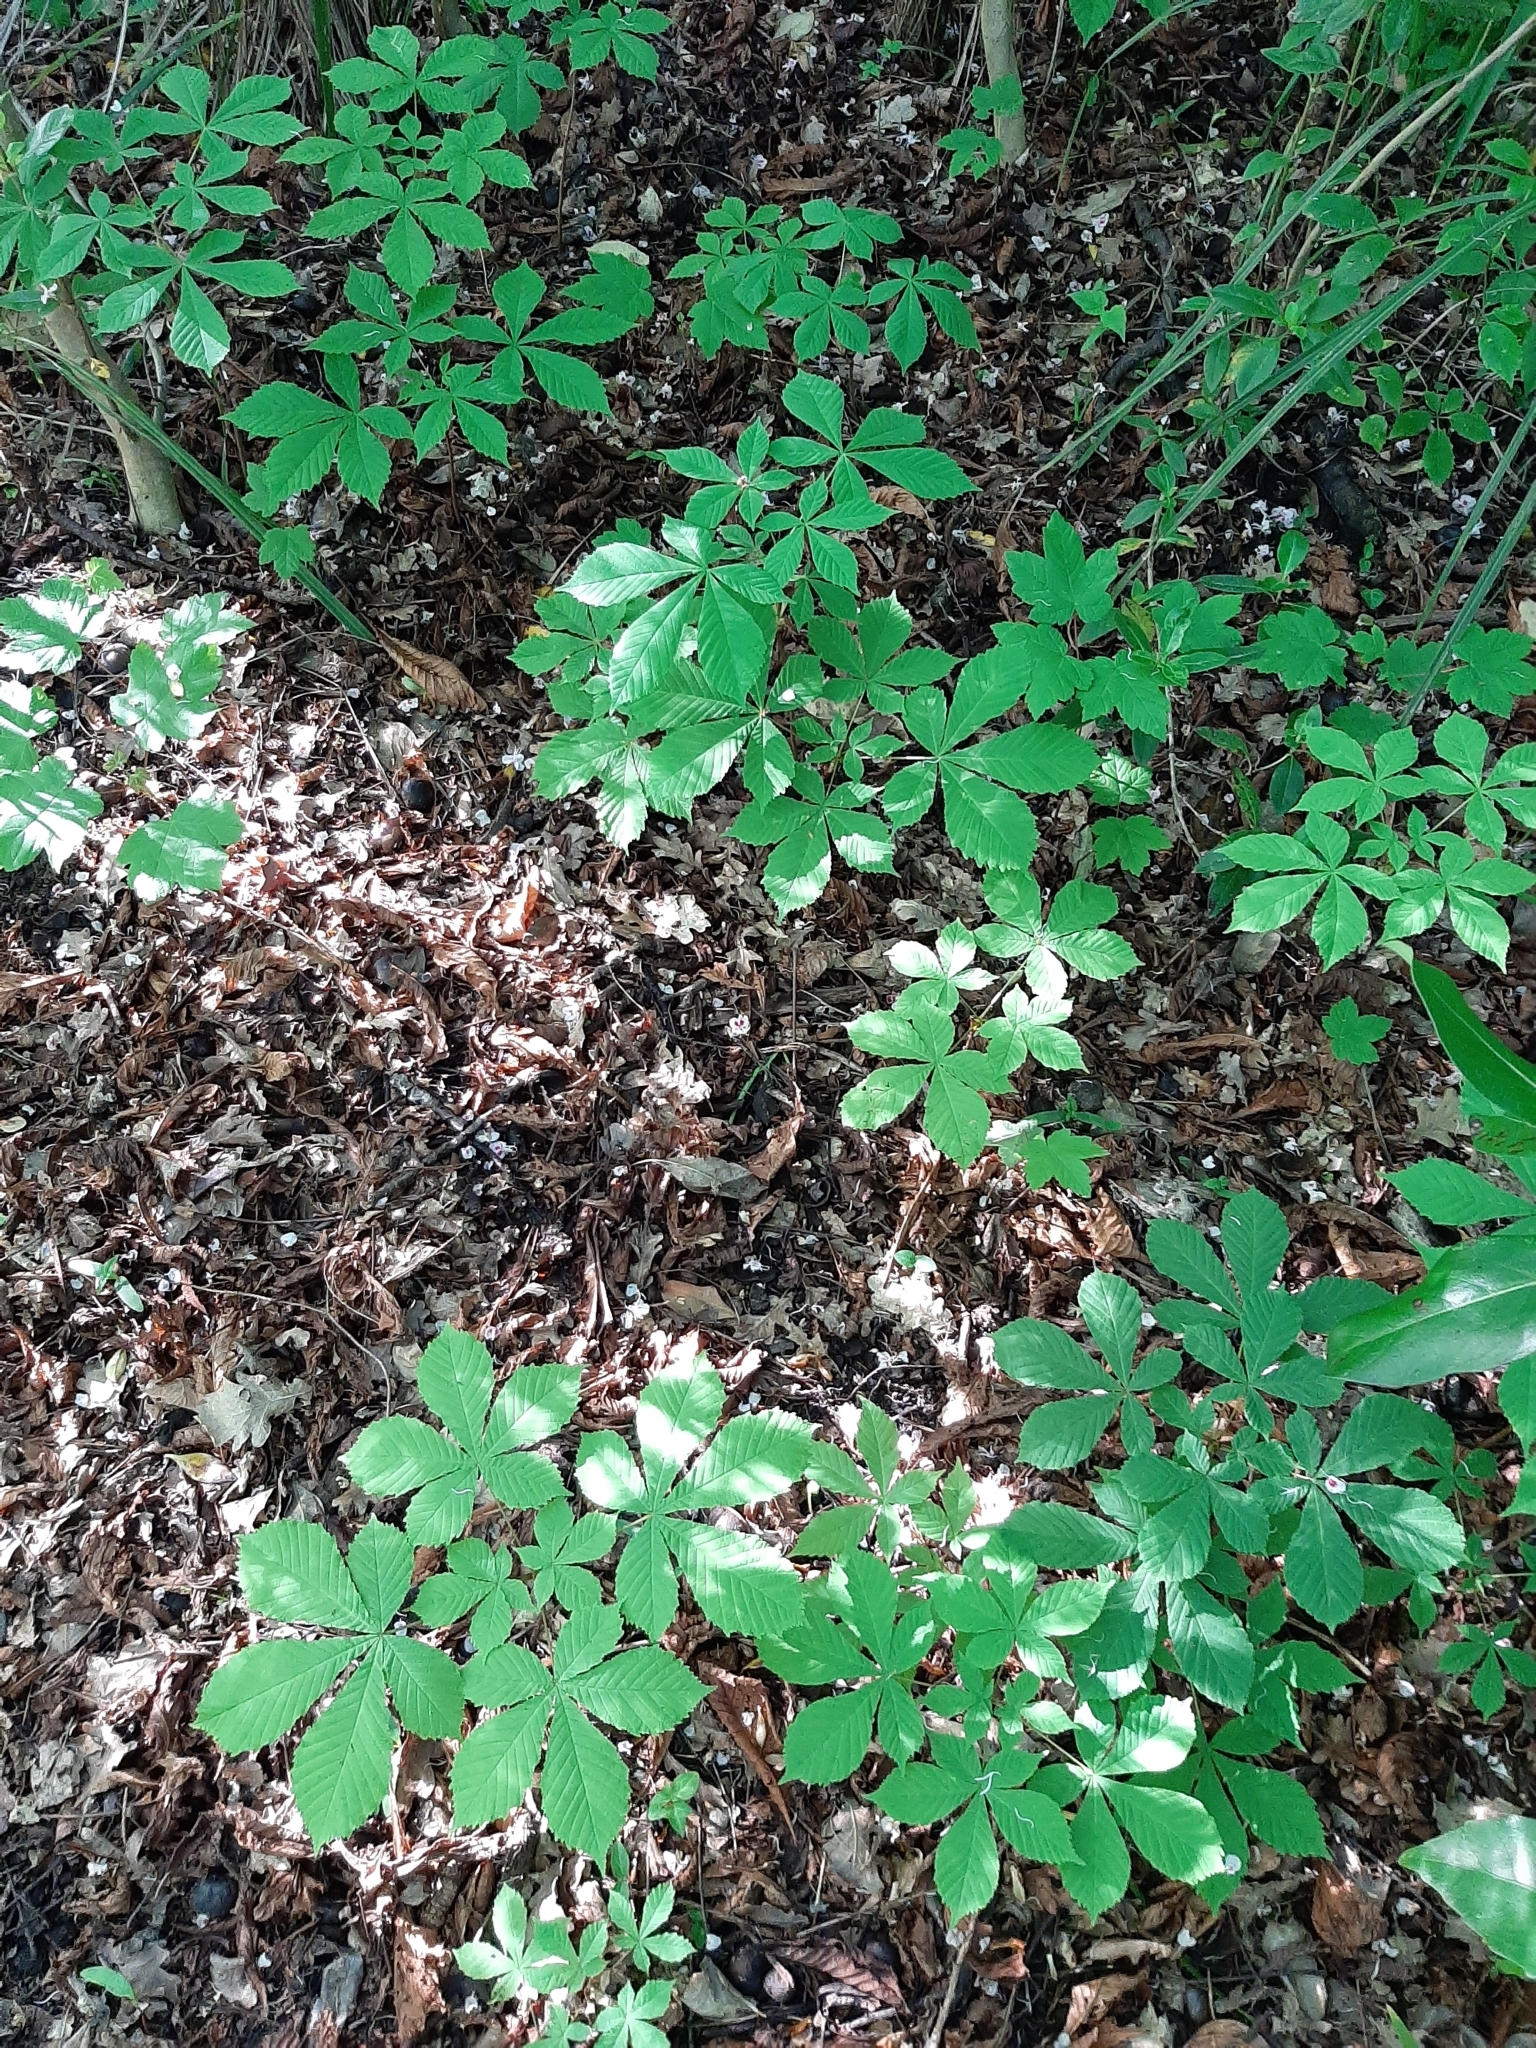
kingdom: Plantae
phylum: Tracheophyta
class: Magnoliopsida
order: Sapindales
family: Sapindaceae
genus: Aesculus
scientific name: Aesculus hippocastanum
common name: Horse-chestnut
